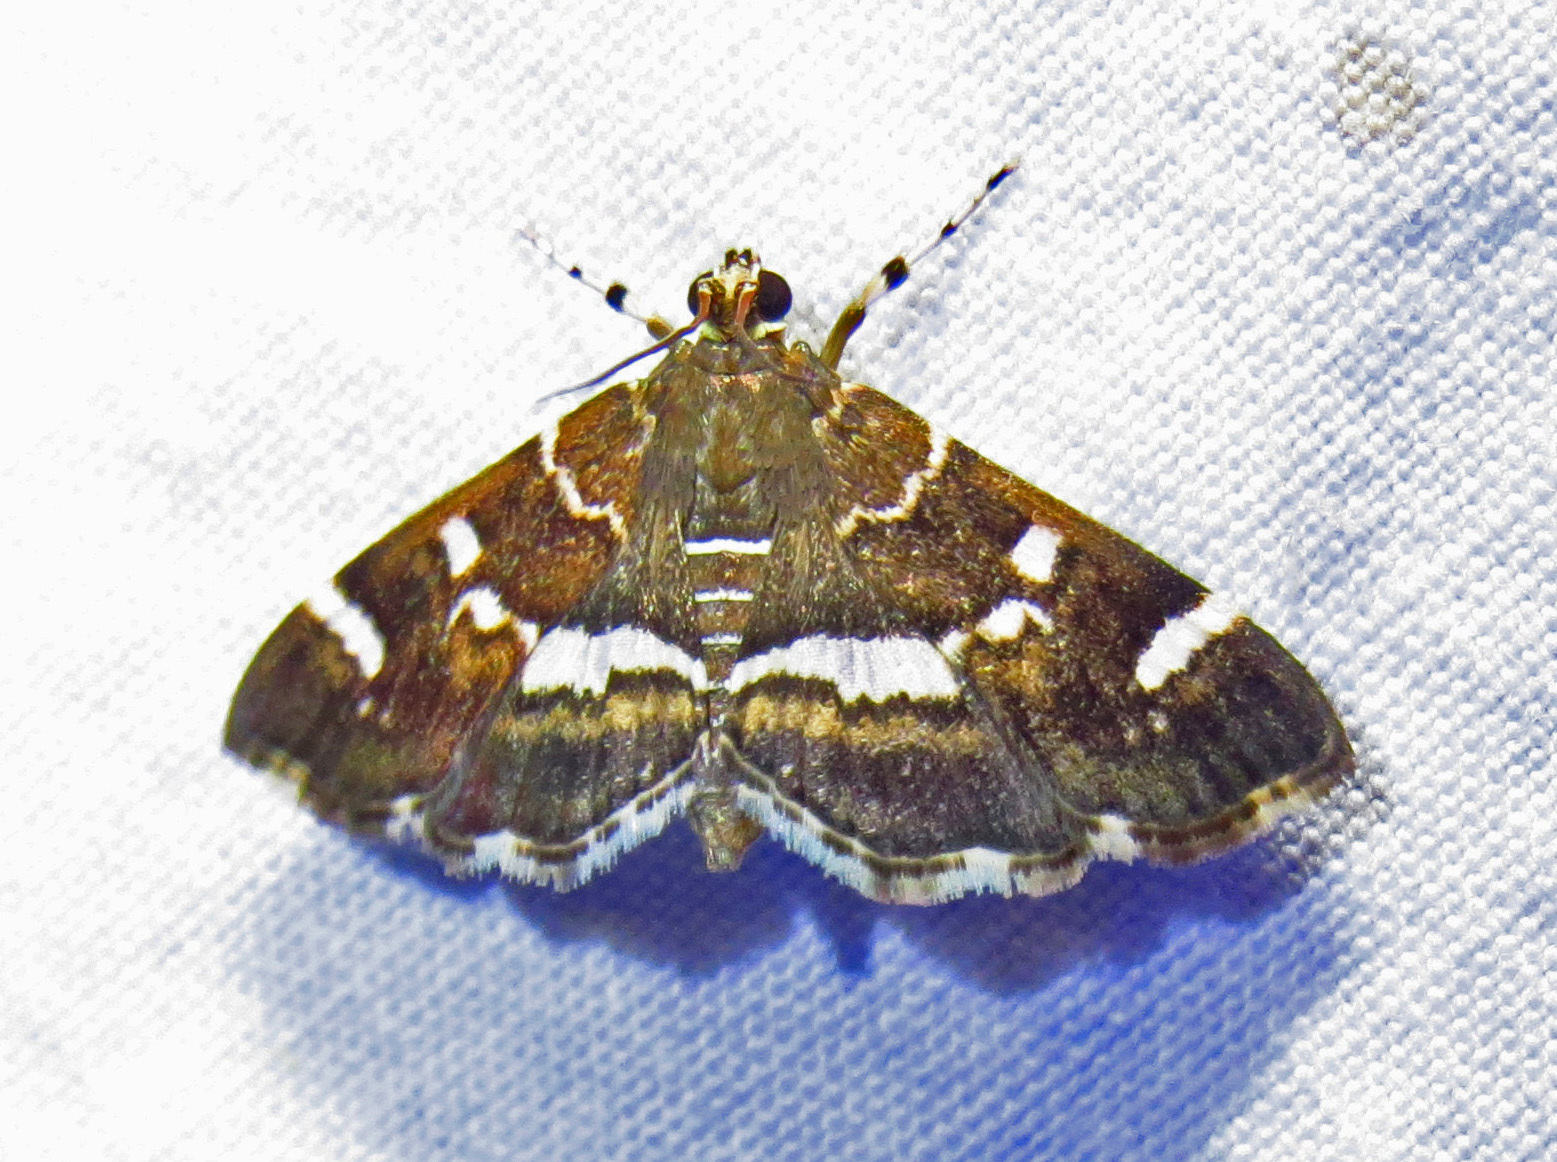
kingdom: Animalia
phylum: Arthropoda
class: Insecta
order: Lepidoptera
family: Crambidae
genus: Hymenia
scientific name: Hymenia perspectalis
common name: Spotted beet webworm
